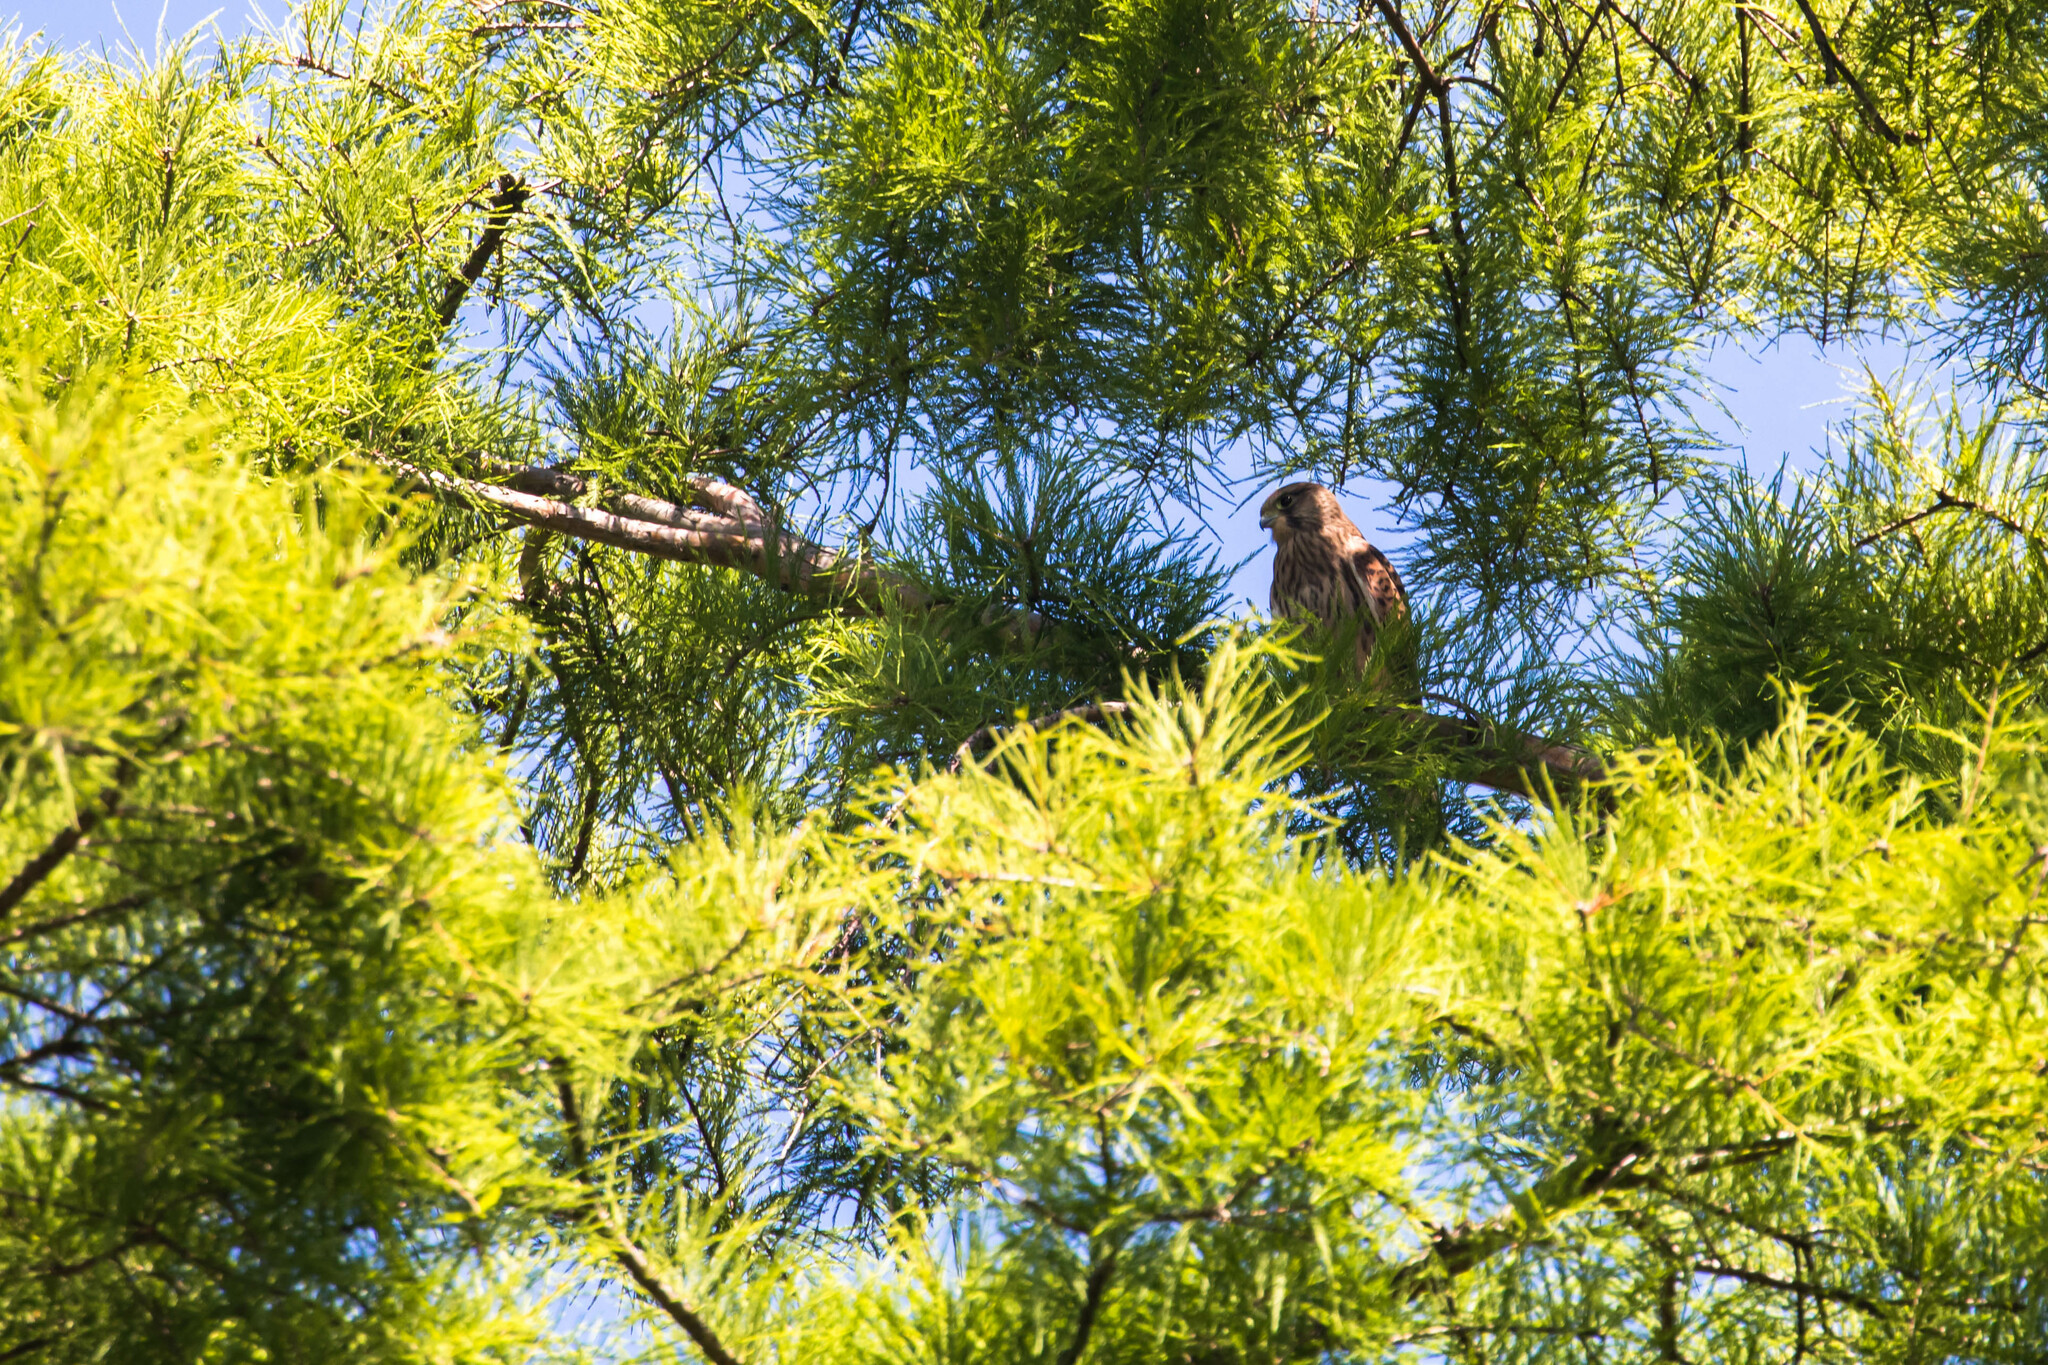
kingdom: Animalia
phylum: Chordata
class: Aves
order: Falconiformes
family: Falconidae
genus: Falco
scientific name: Falco tinnunculus
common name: Common kestrel
